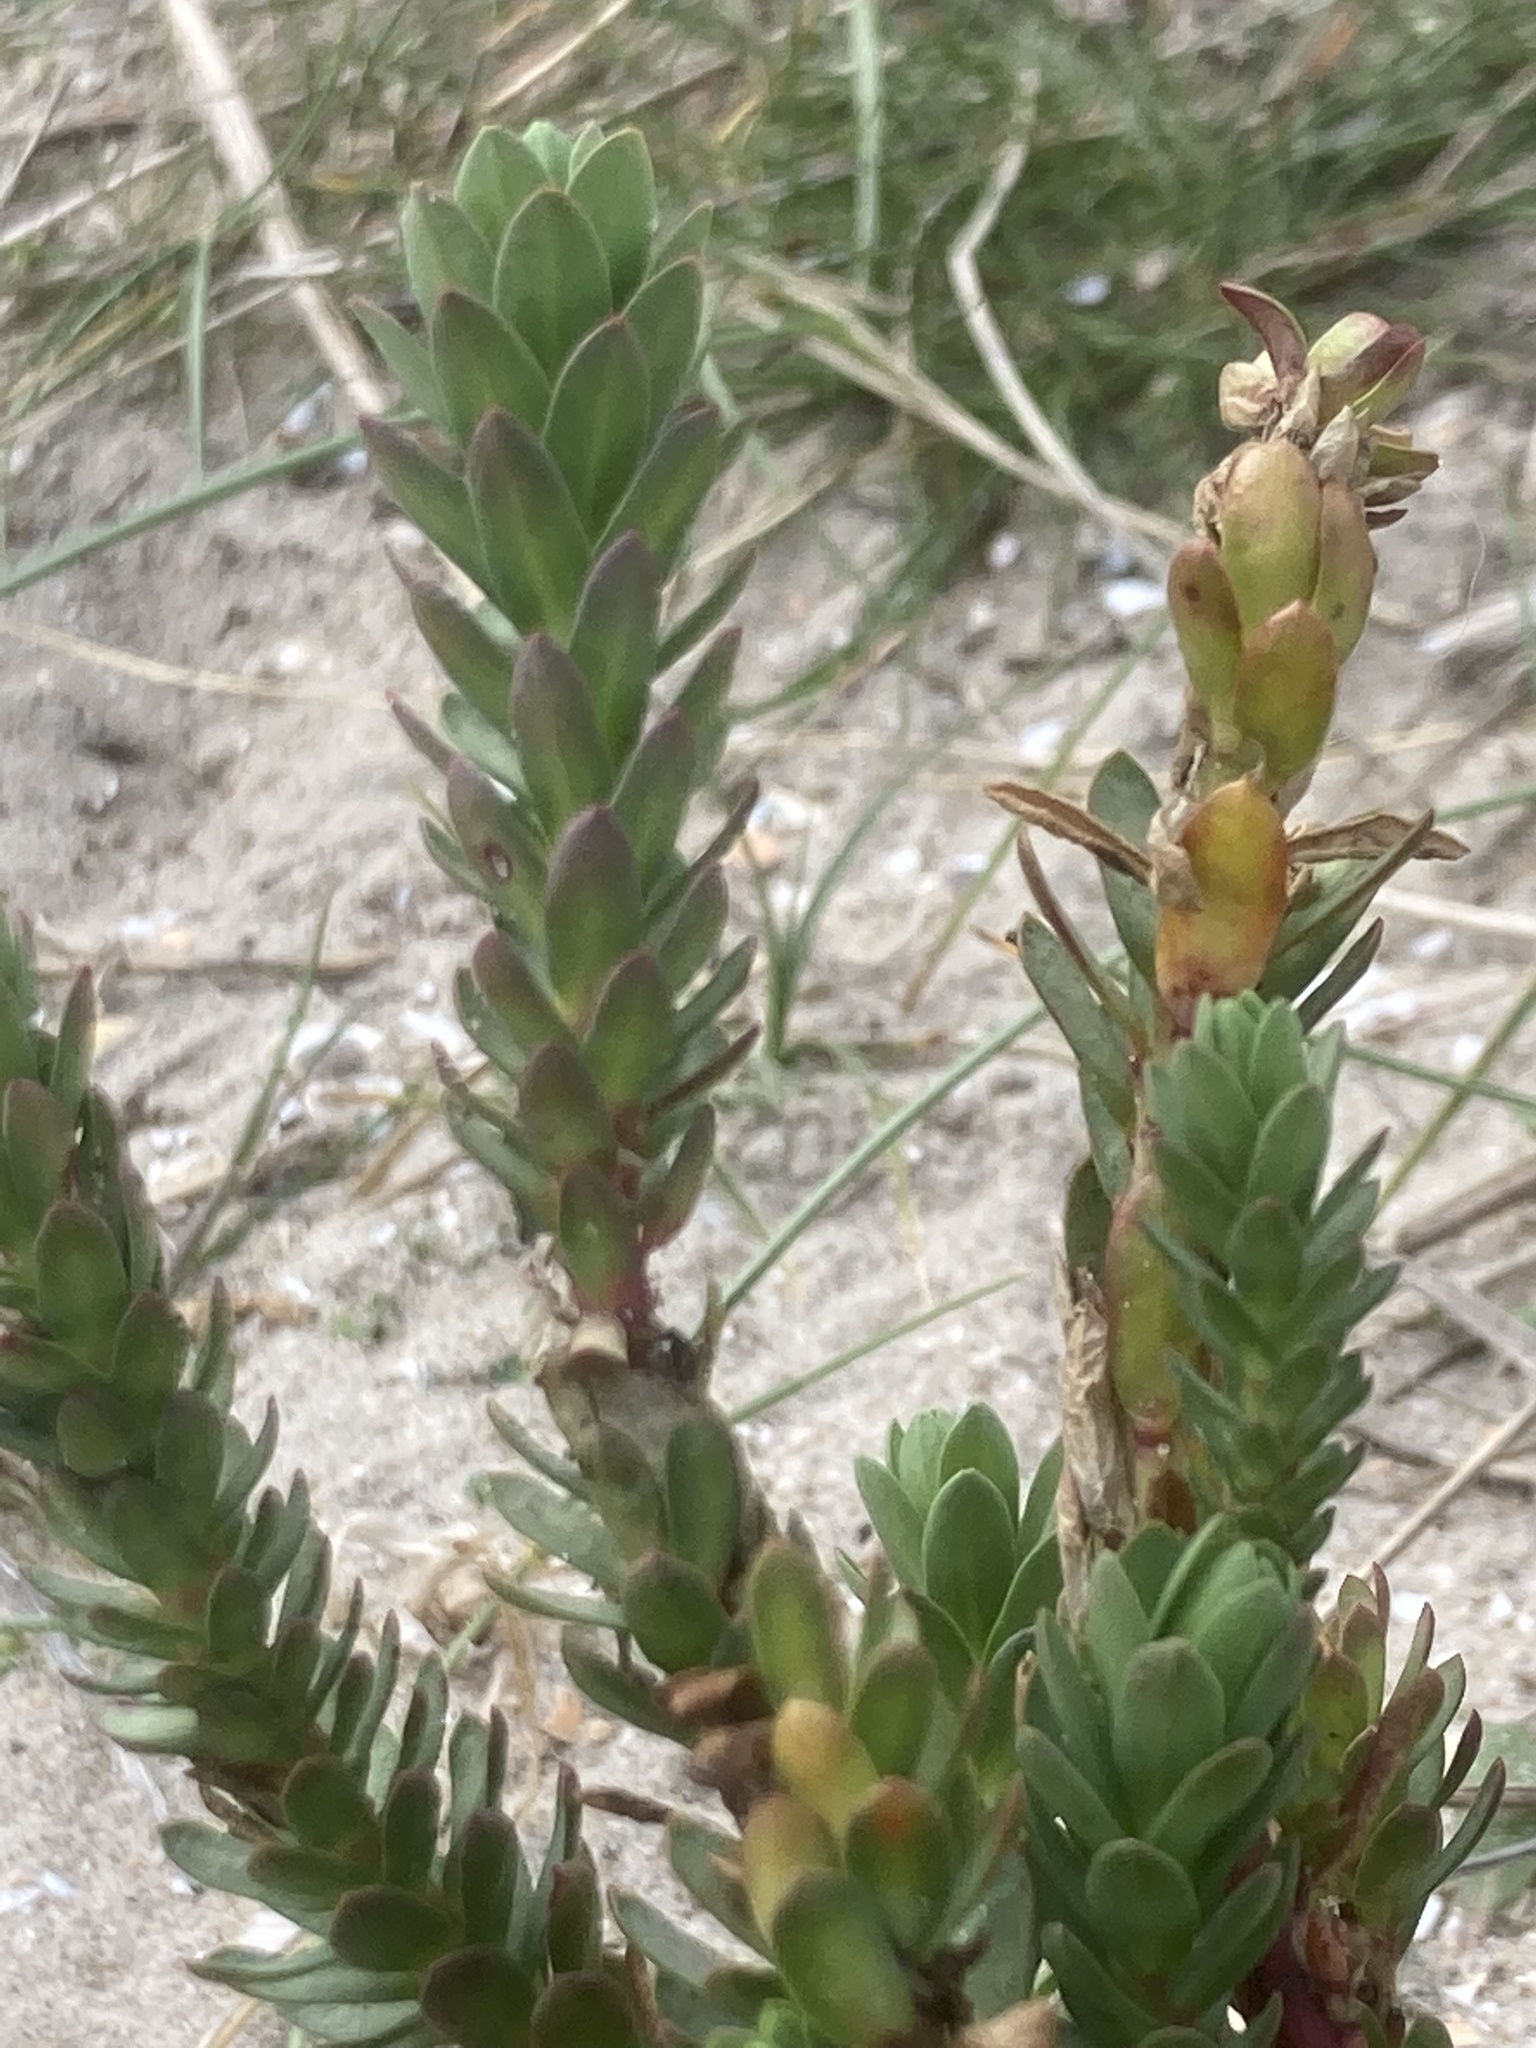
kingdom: Plantae
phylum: Tracheophyta
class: Magnoliopsida
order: Malpighiales
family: Euphorbiaceae
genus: Euphorbia
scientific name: Euphorbia paralias
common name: Sea spurge
